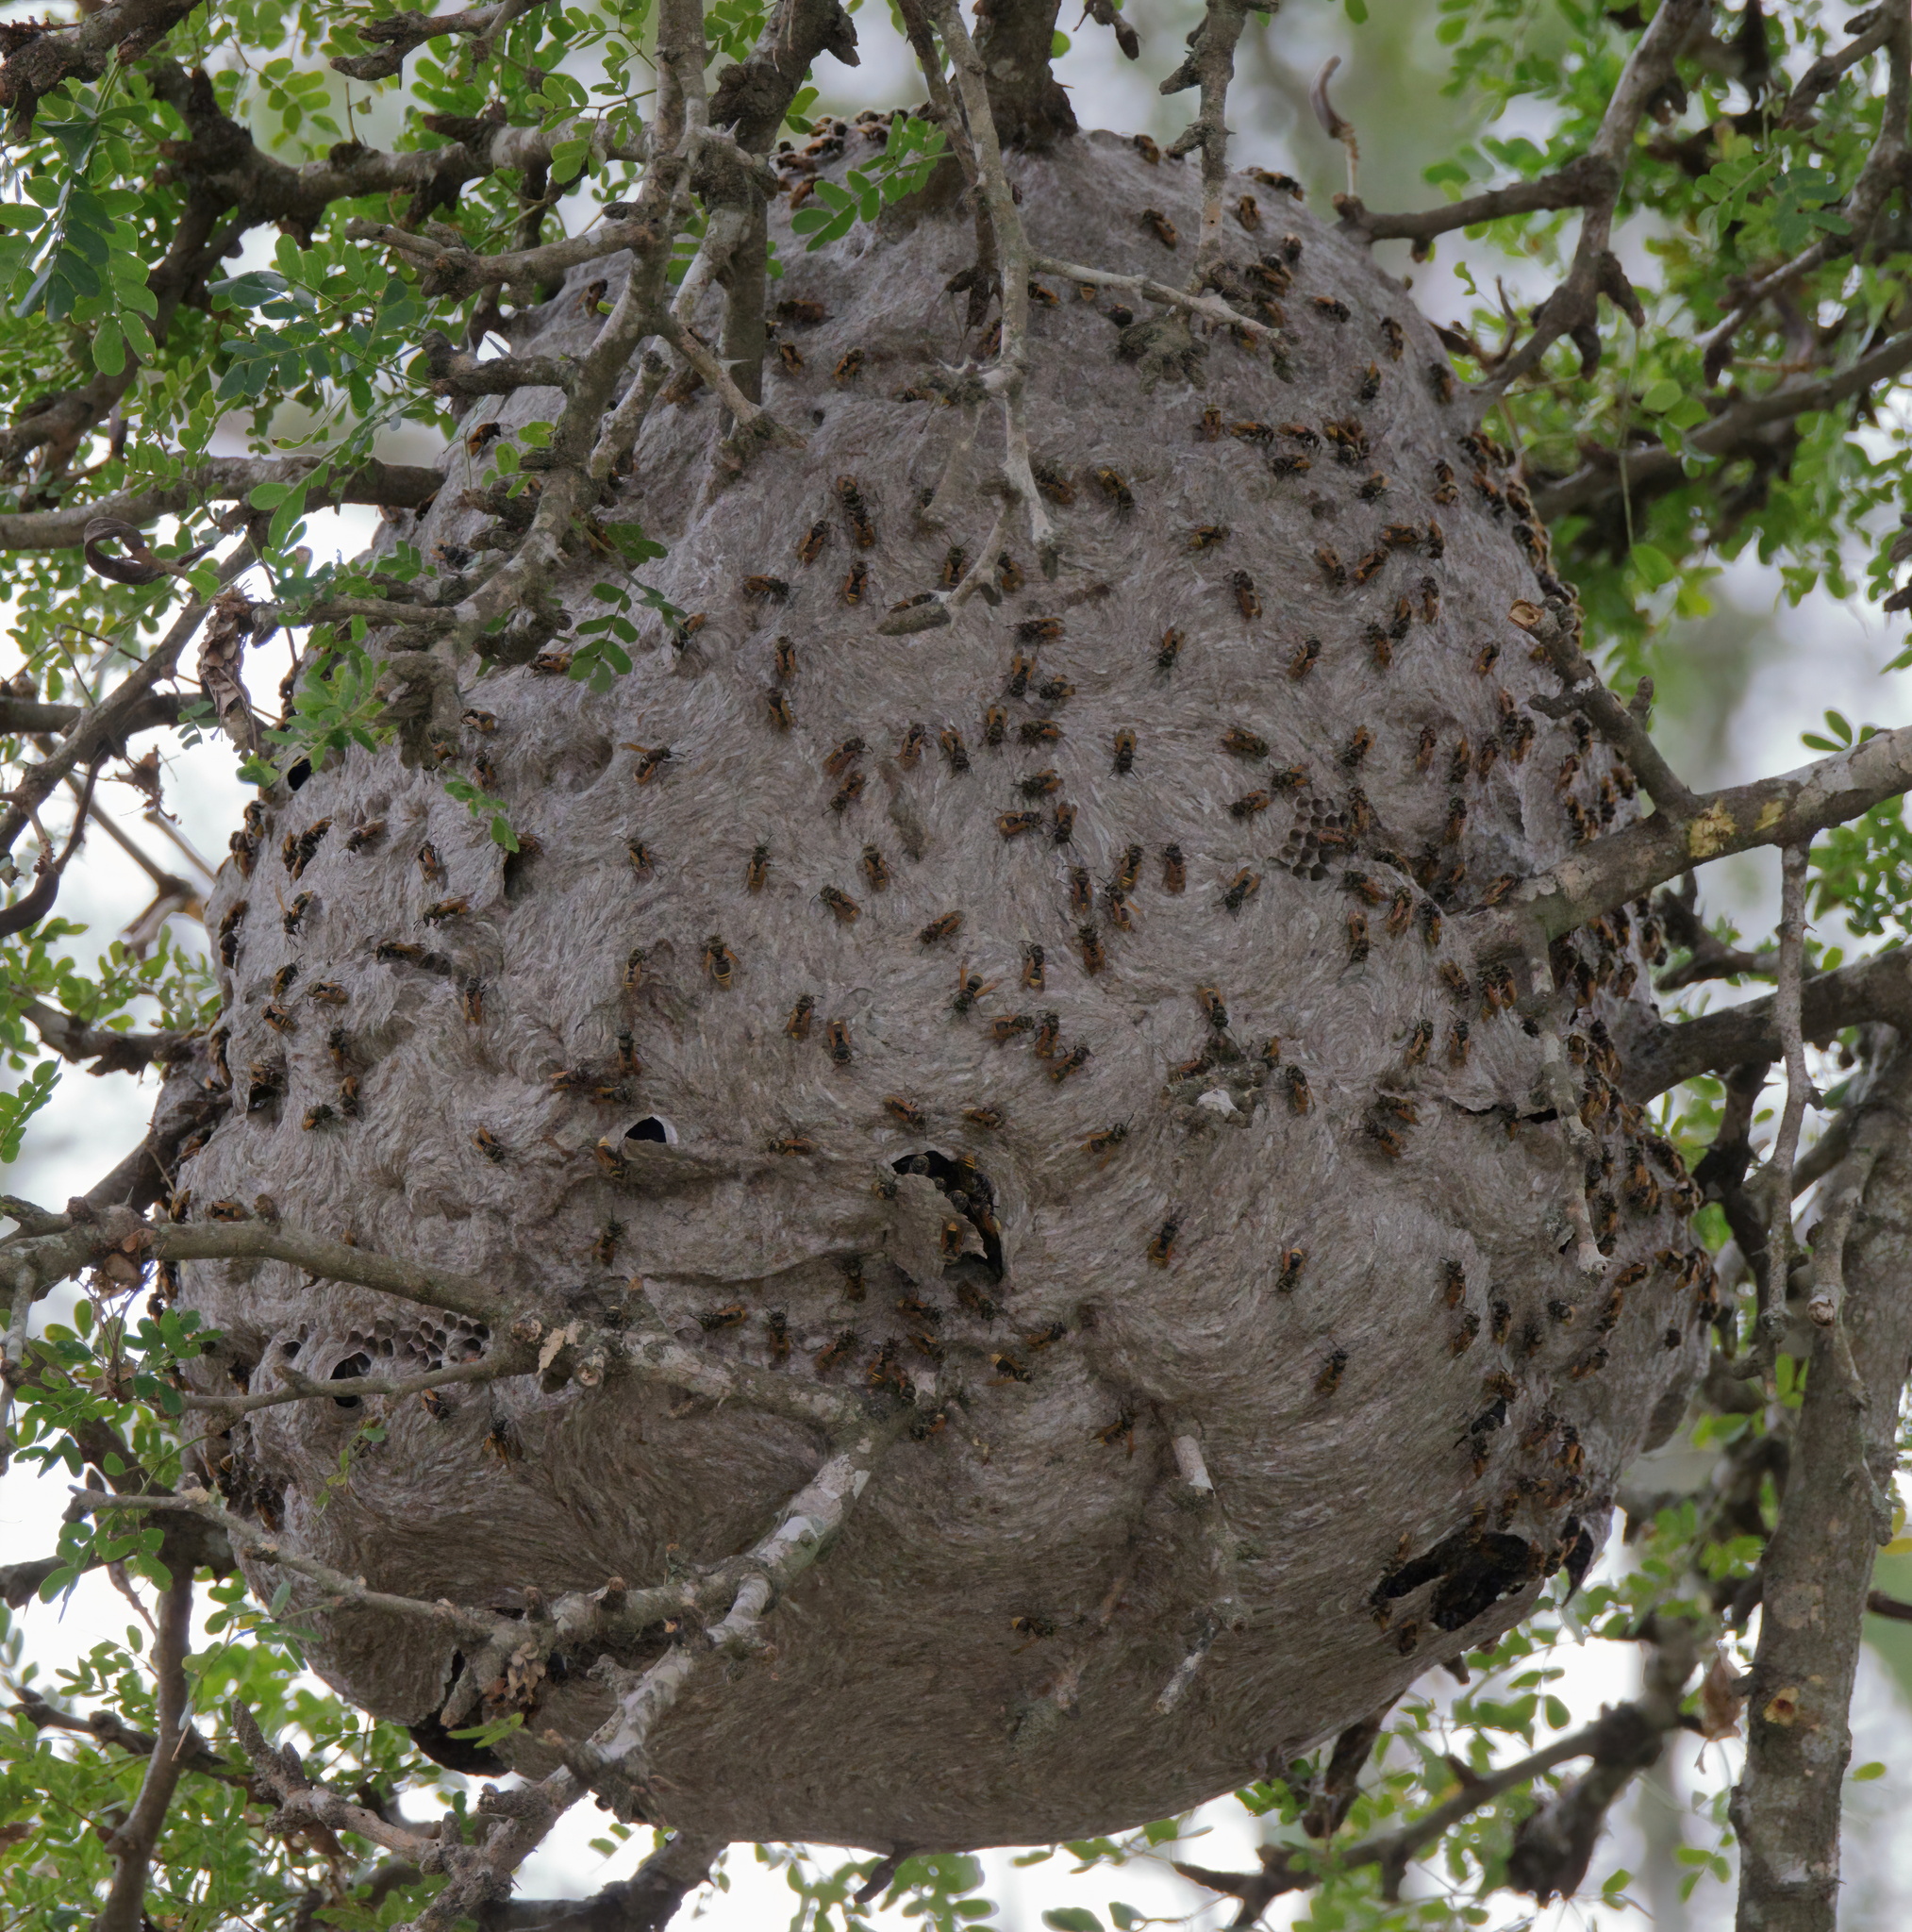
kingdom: Animalia
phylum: Arthropoda
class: Insecta
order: Hymenoptera
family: Vespidae
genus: Brachygastra
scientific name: Brachygastra mellifica
